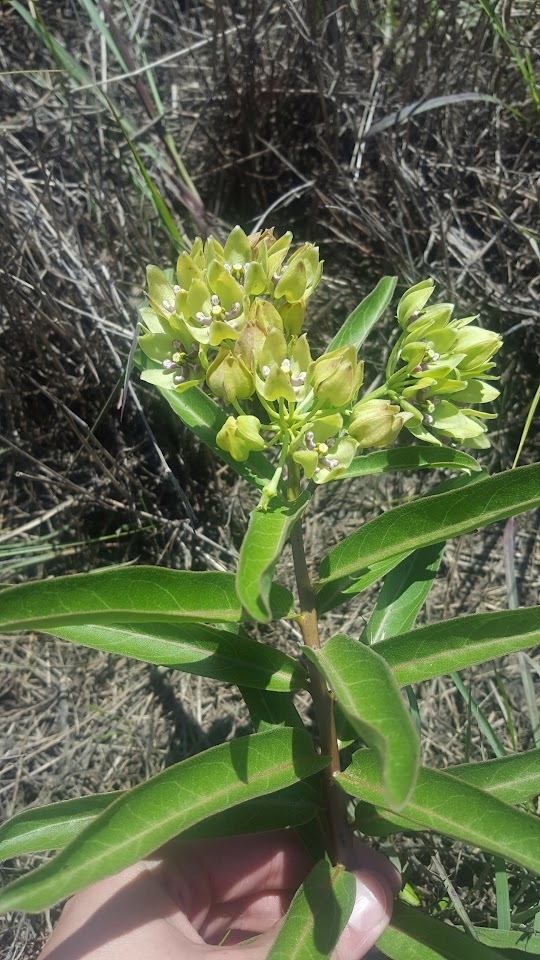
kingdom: Plantae
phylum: Tracheophyta
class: Magnoliopsida
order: Gentianales
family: Apocynaceae
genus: Asclepias
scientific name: Asclepias viridis
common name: Antelope-horns
